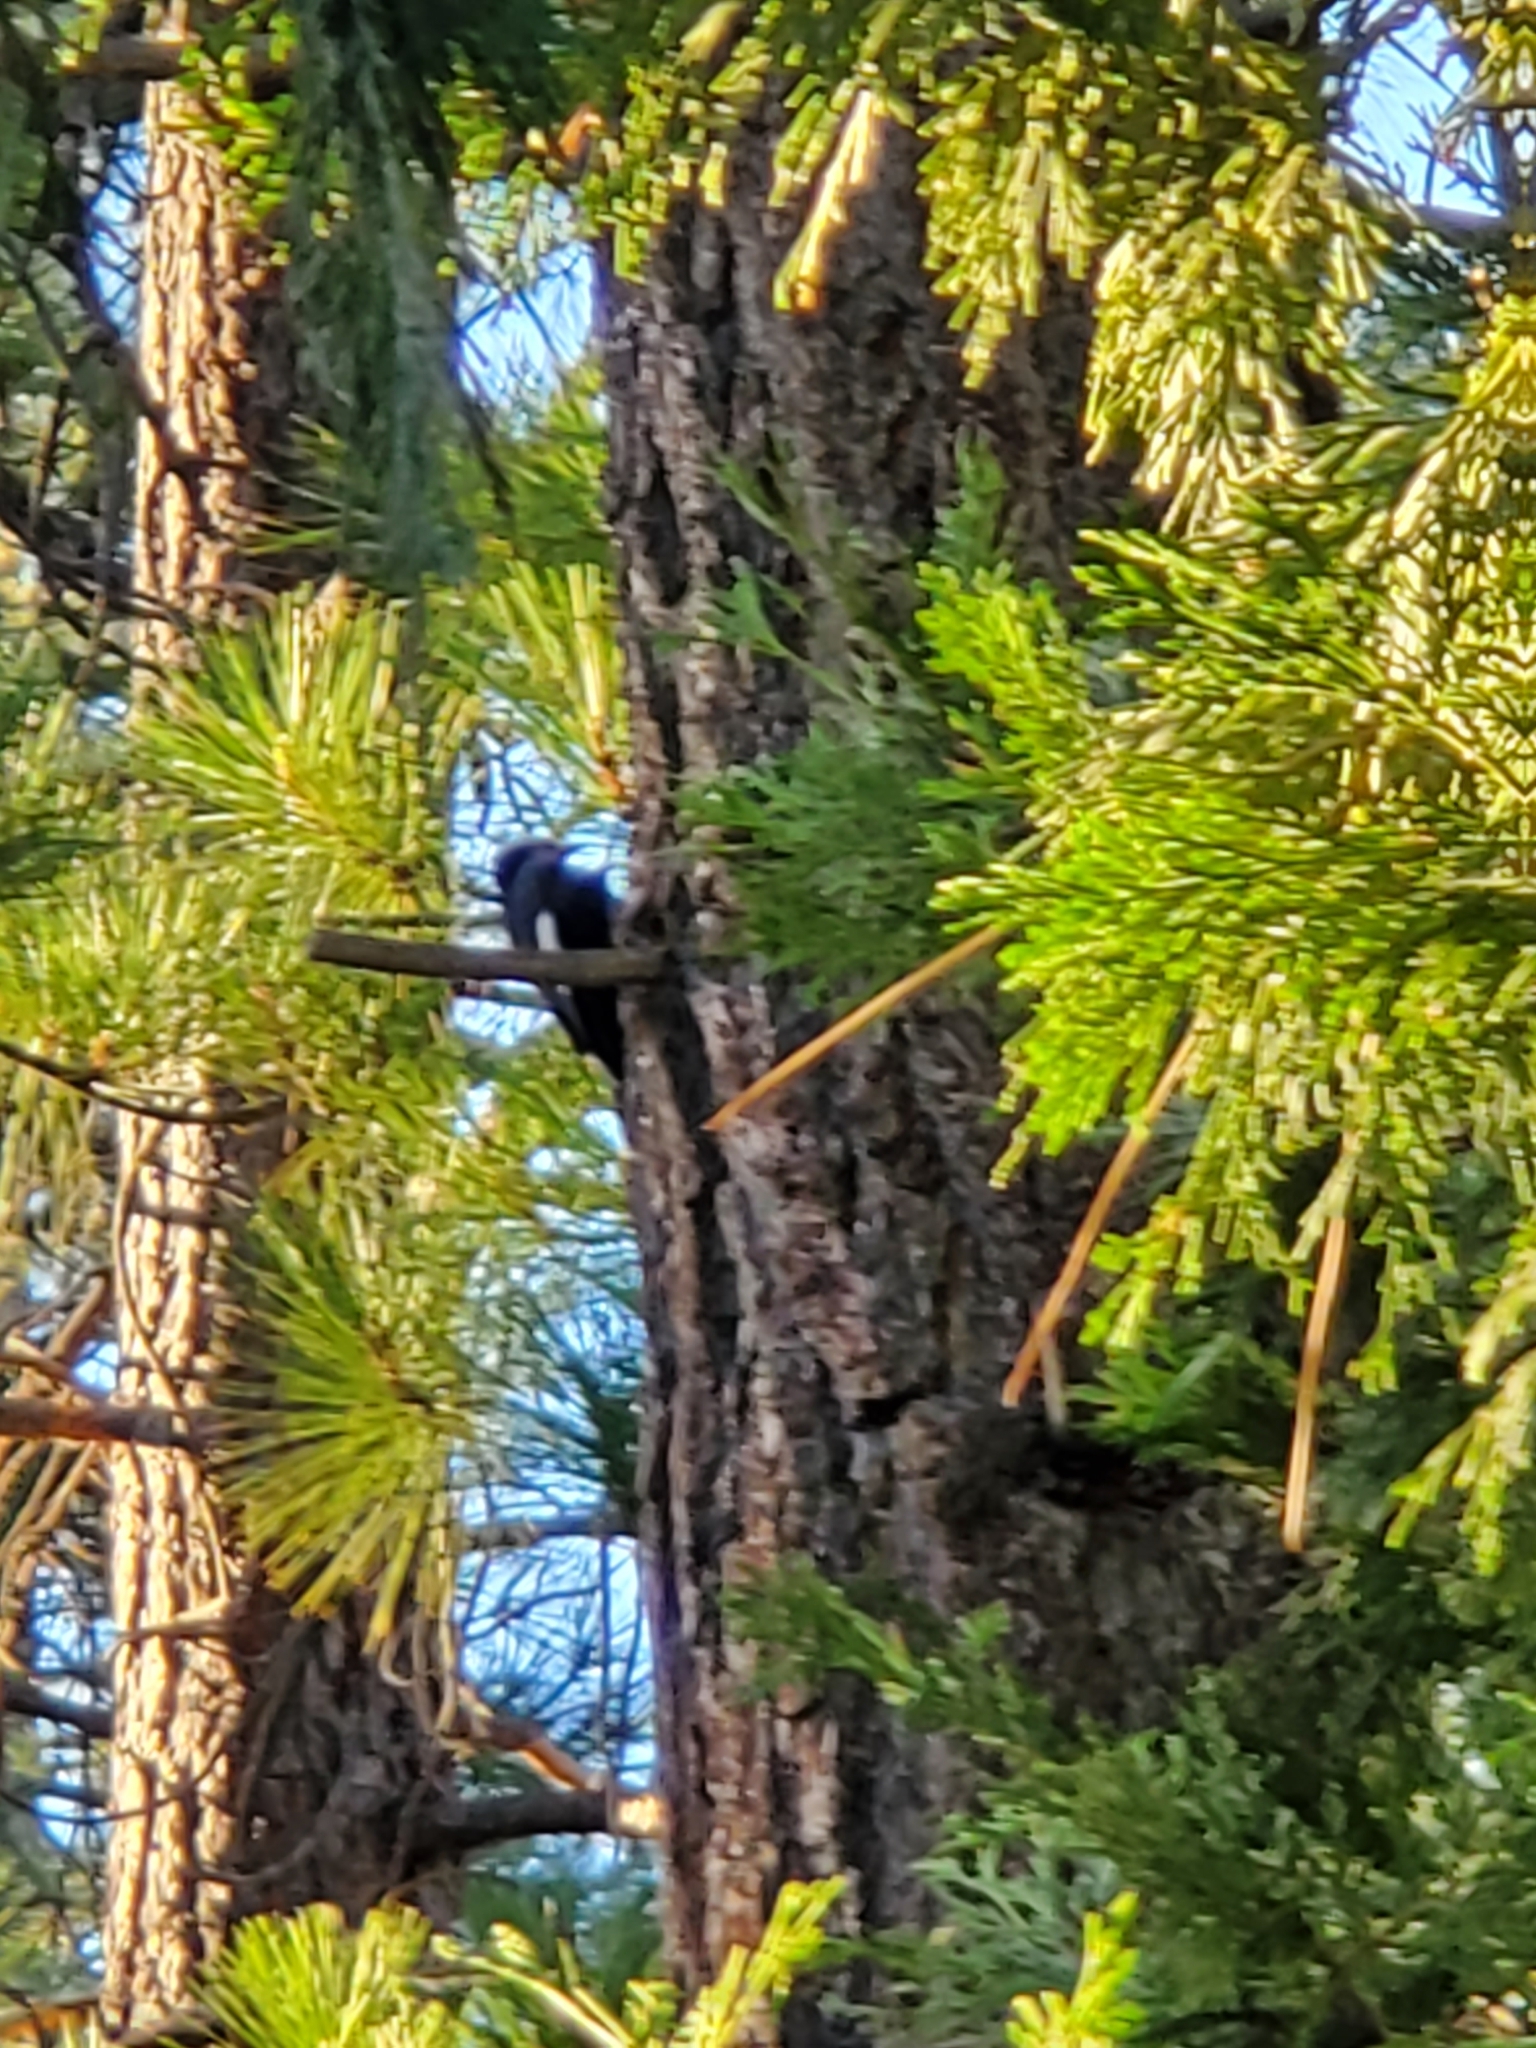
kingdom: Animalia
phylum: Chordata
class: Aves
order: Piciformes
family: Picidae
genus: Leuconotopicus
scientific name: Leuconotopicus albolarvatus
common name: White-headed woodpecker
